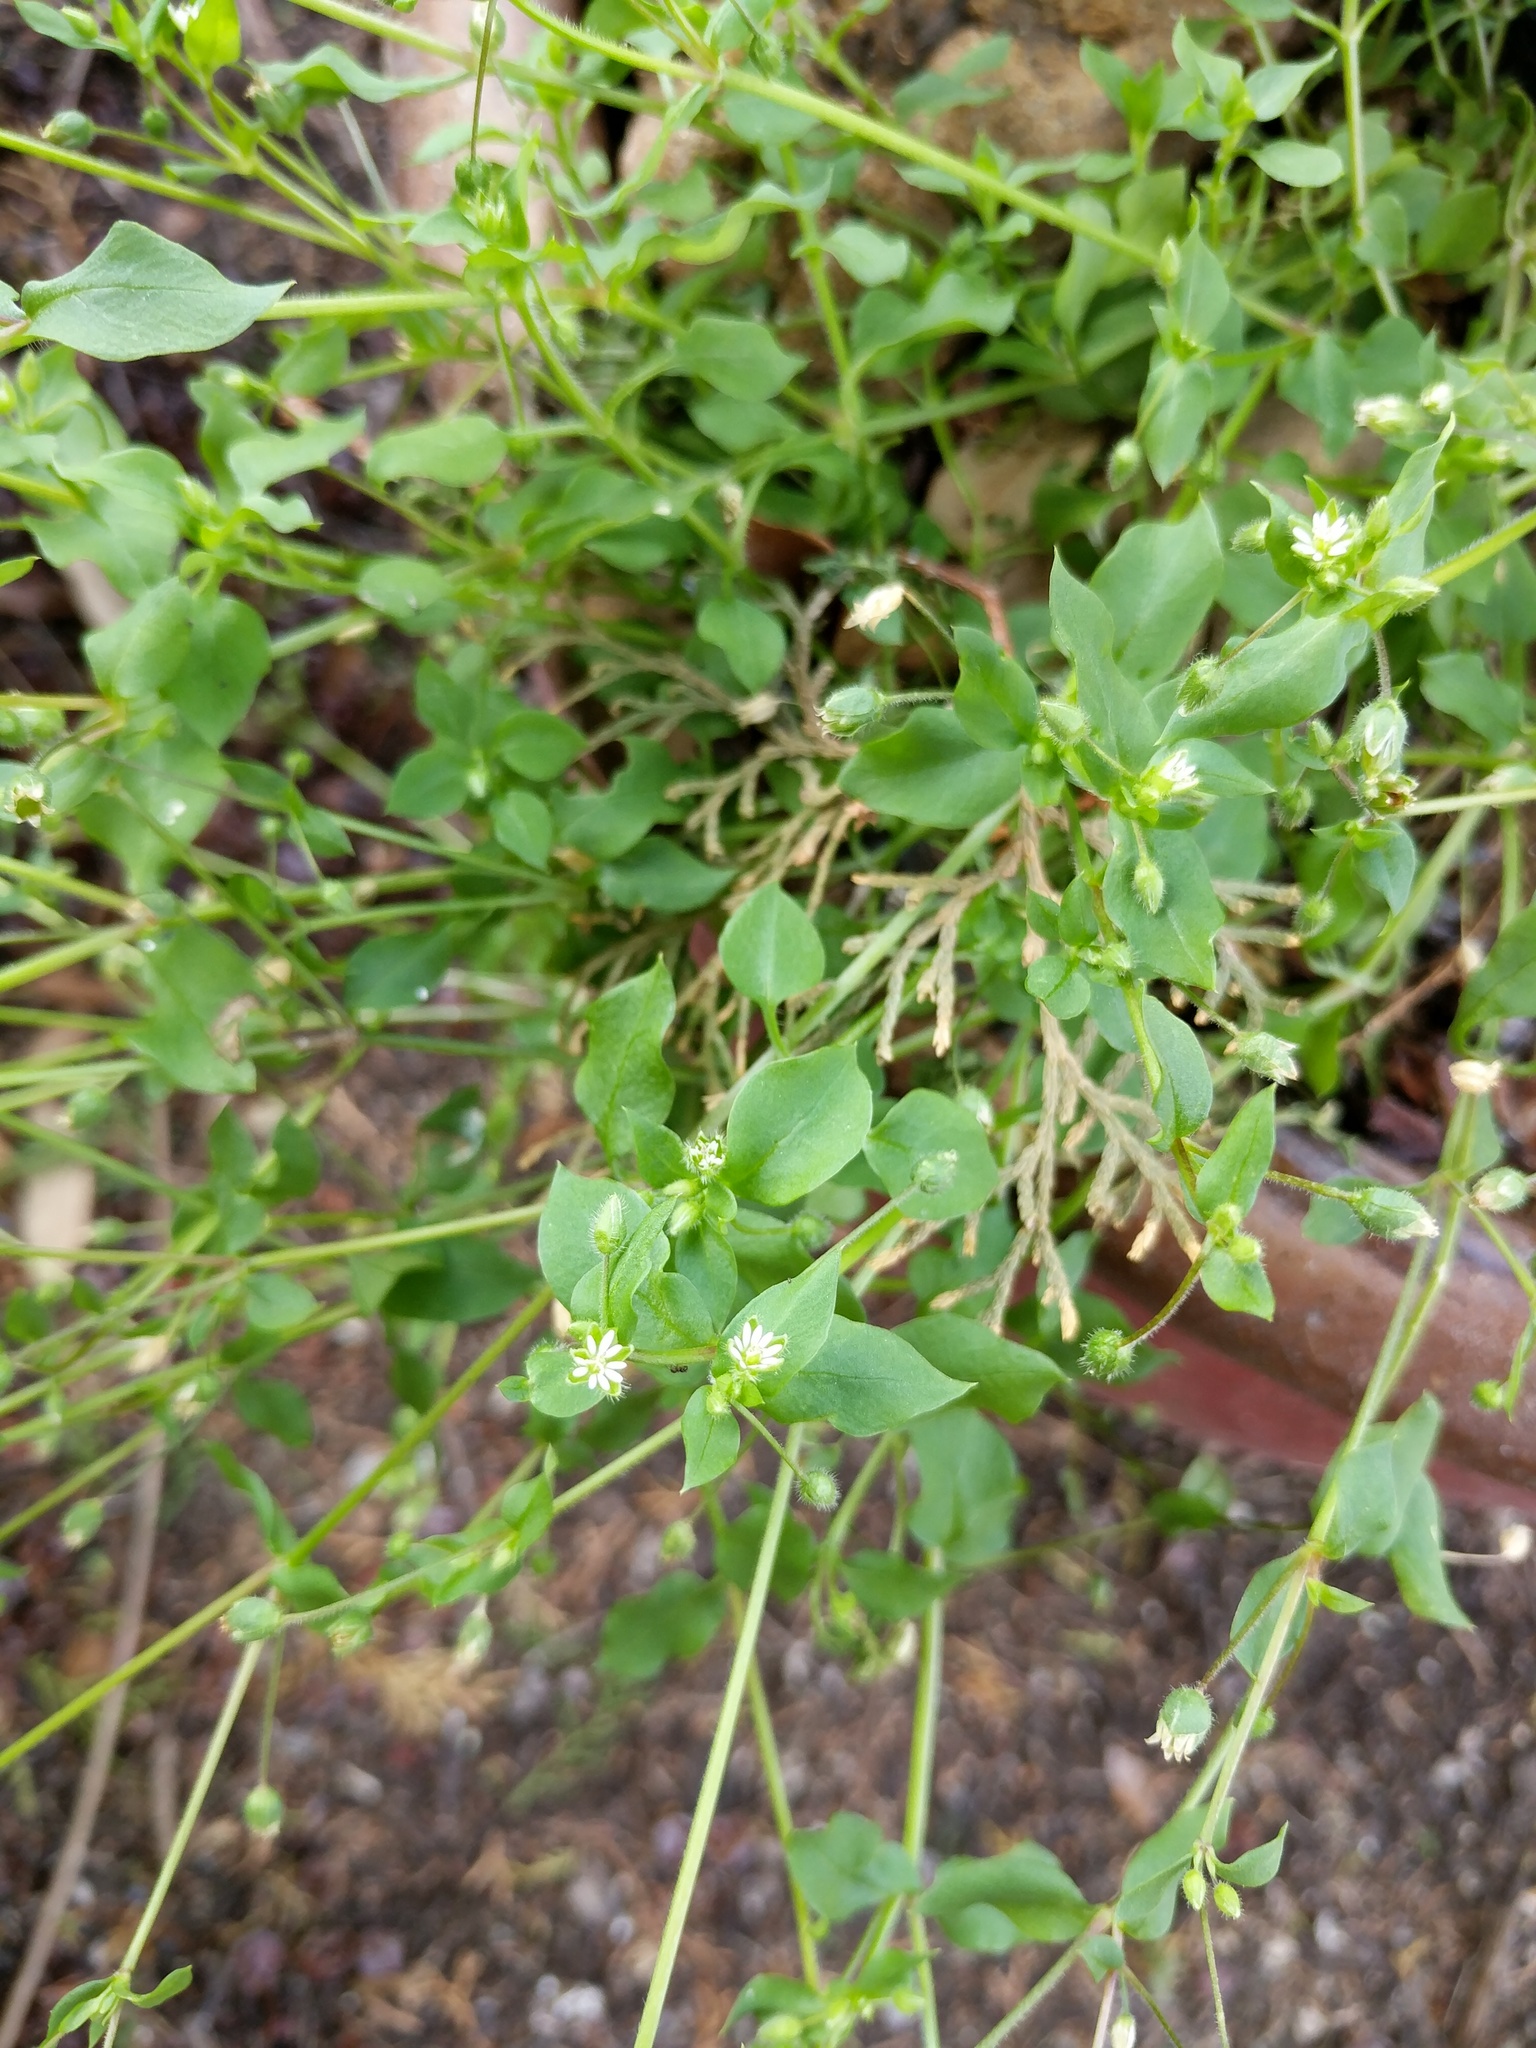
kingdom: Plantae
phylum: Tracheophyta
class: Magnoliopsida
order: Caryophyllales
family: Caryophyllaceae
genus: Stellaria
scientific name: Stellaria media
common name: Common chickweed
